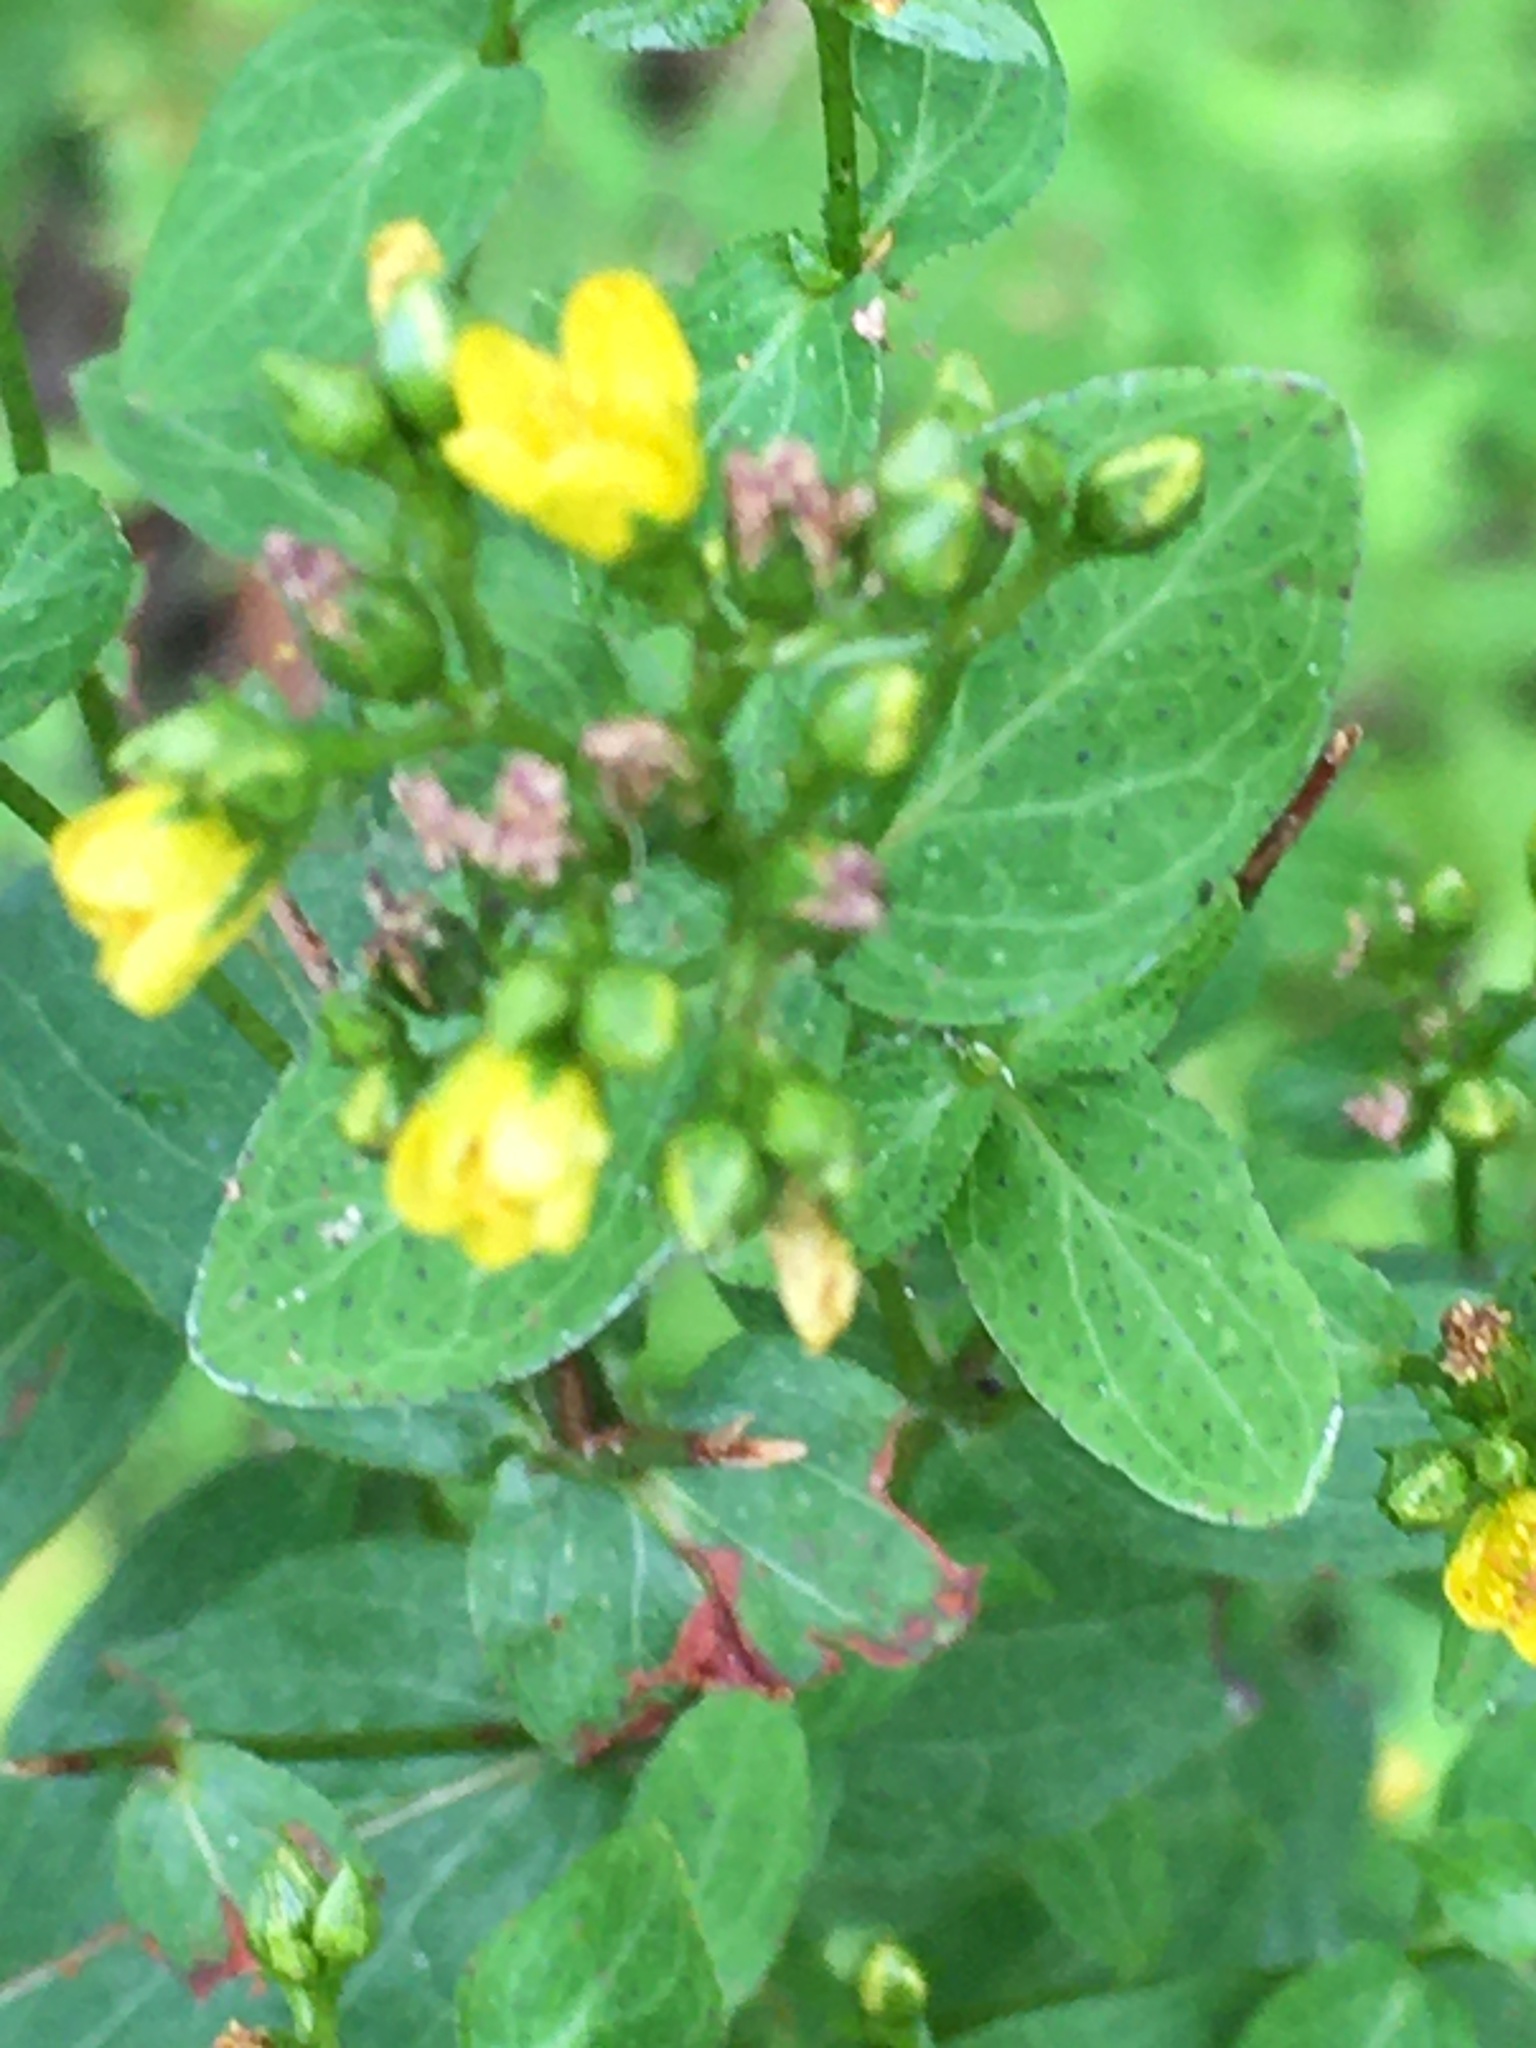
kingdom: Plantae
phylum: Tracheophyta
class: Magnoliopsida
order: Malpighiales
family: Hypericaceae
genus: Hypericum
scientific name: Hypericum punctatum
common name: Spotted st. john's-wort
